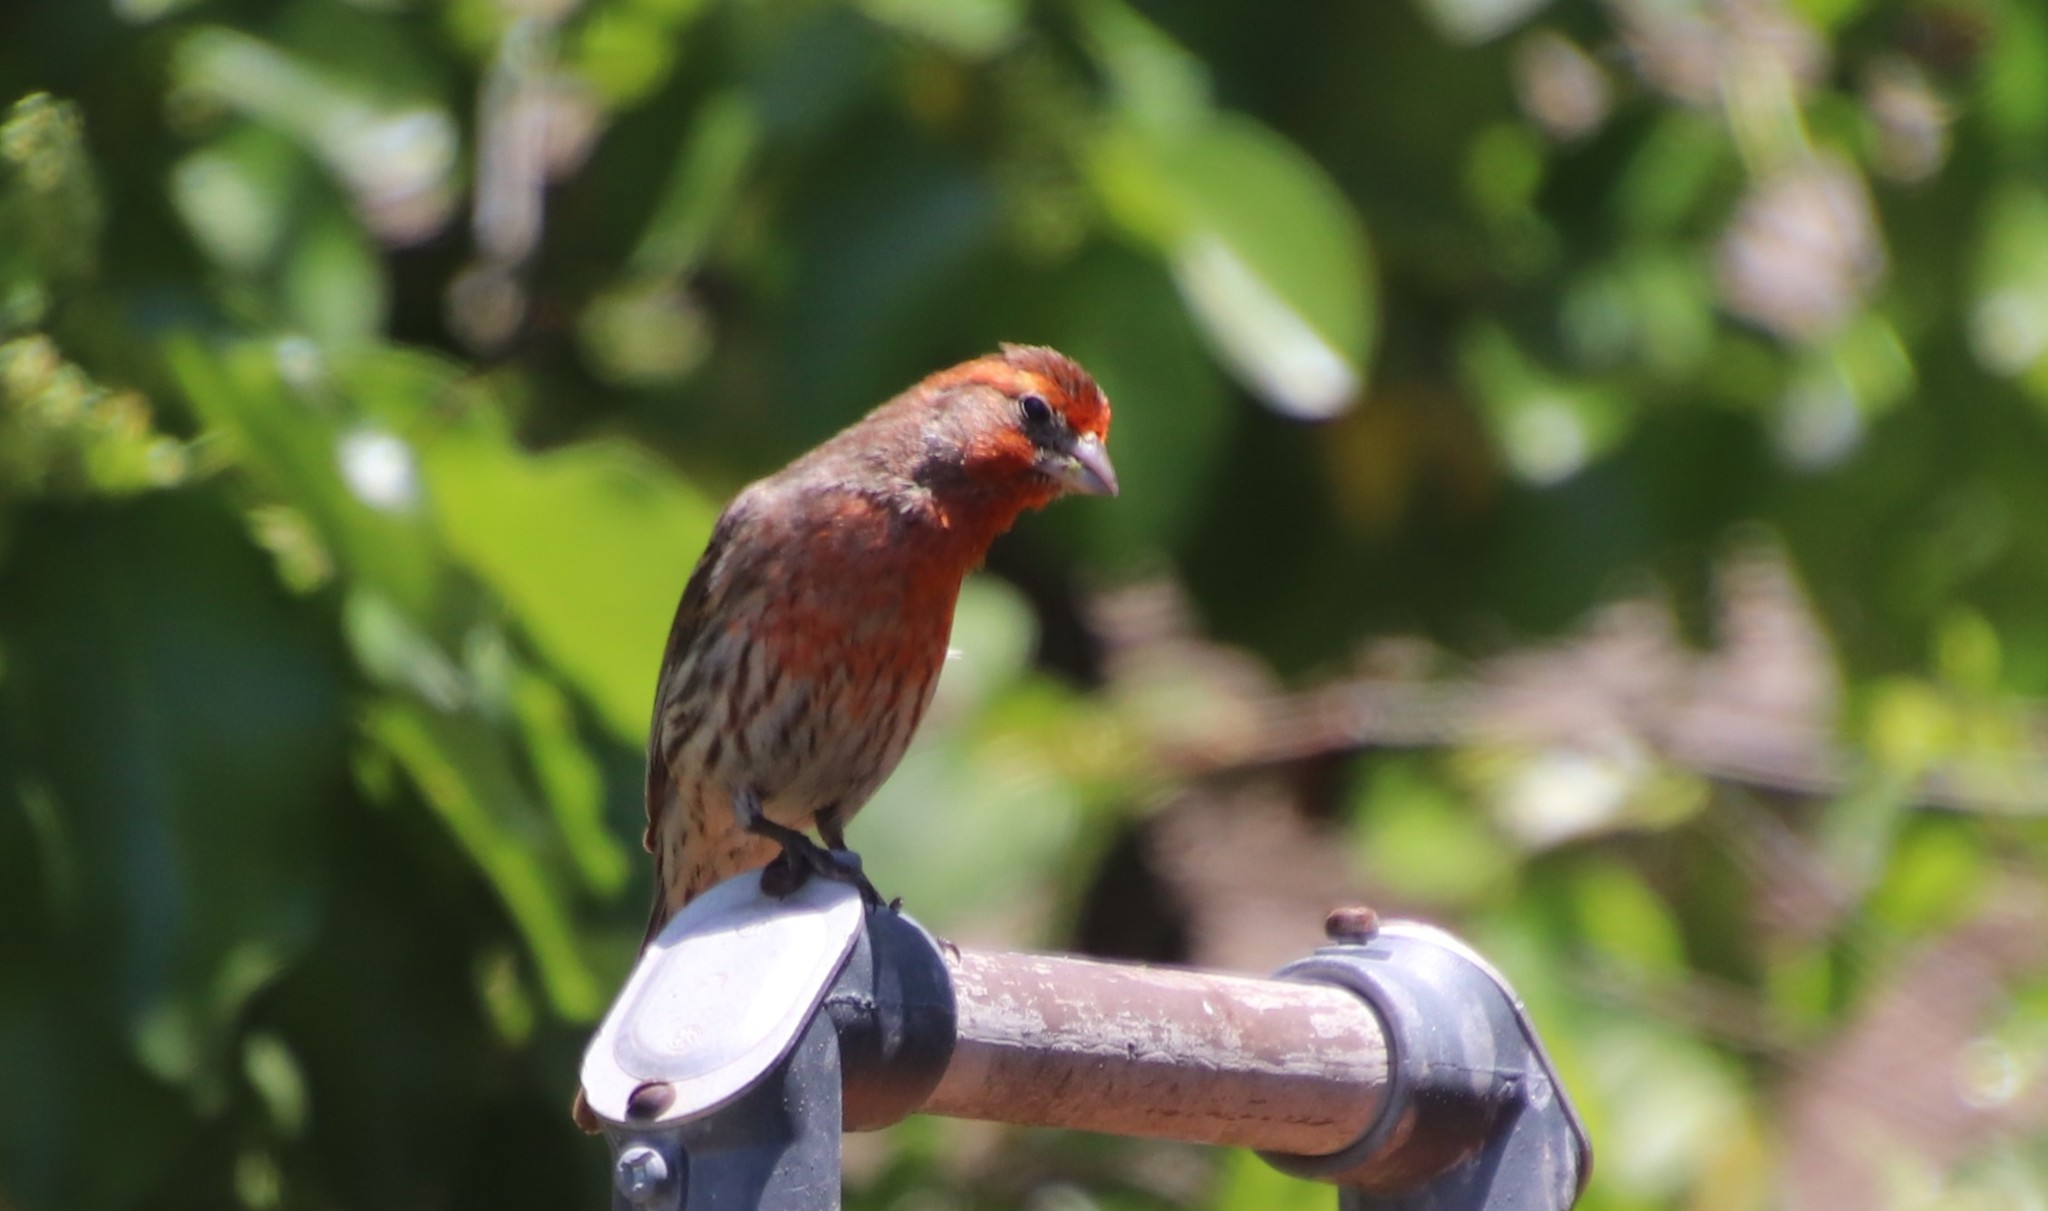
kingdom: Animalia
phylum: Chordata
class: Aves
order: Passeriformes
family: Fringillidae
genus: Haemorhous
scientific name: Haemorhous mexicanus
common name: House finch
